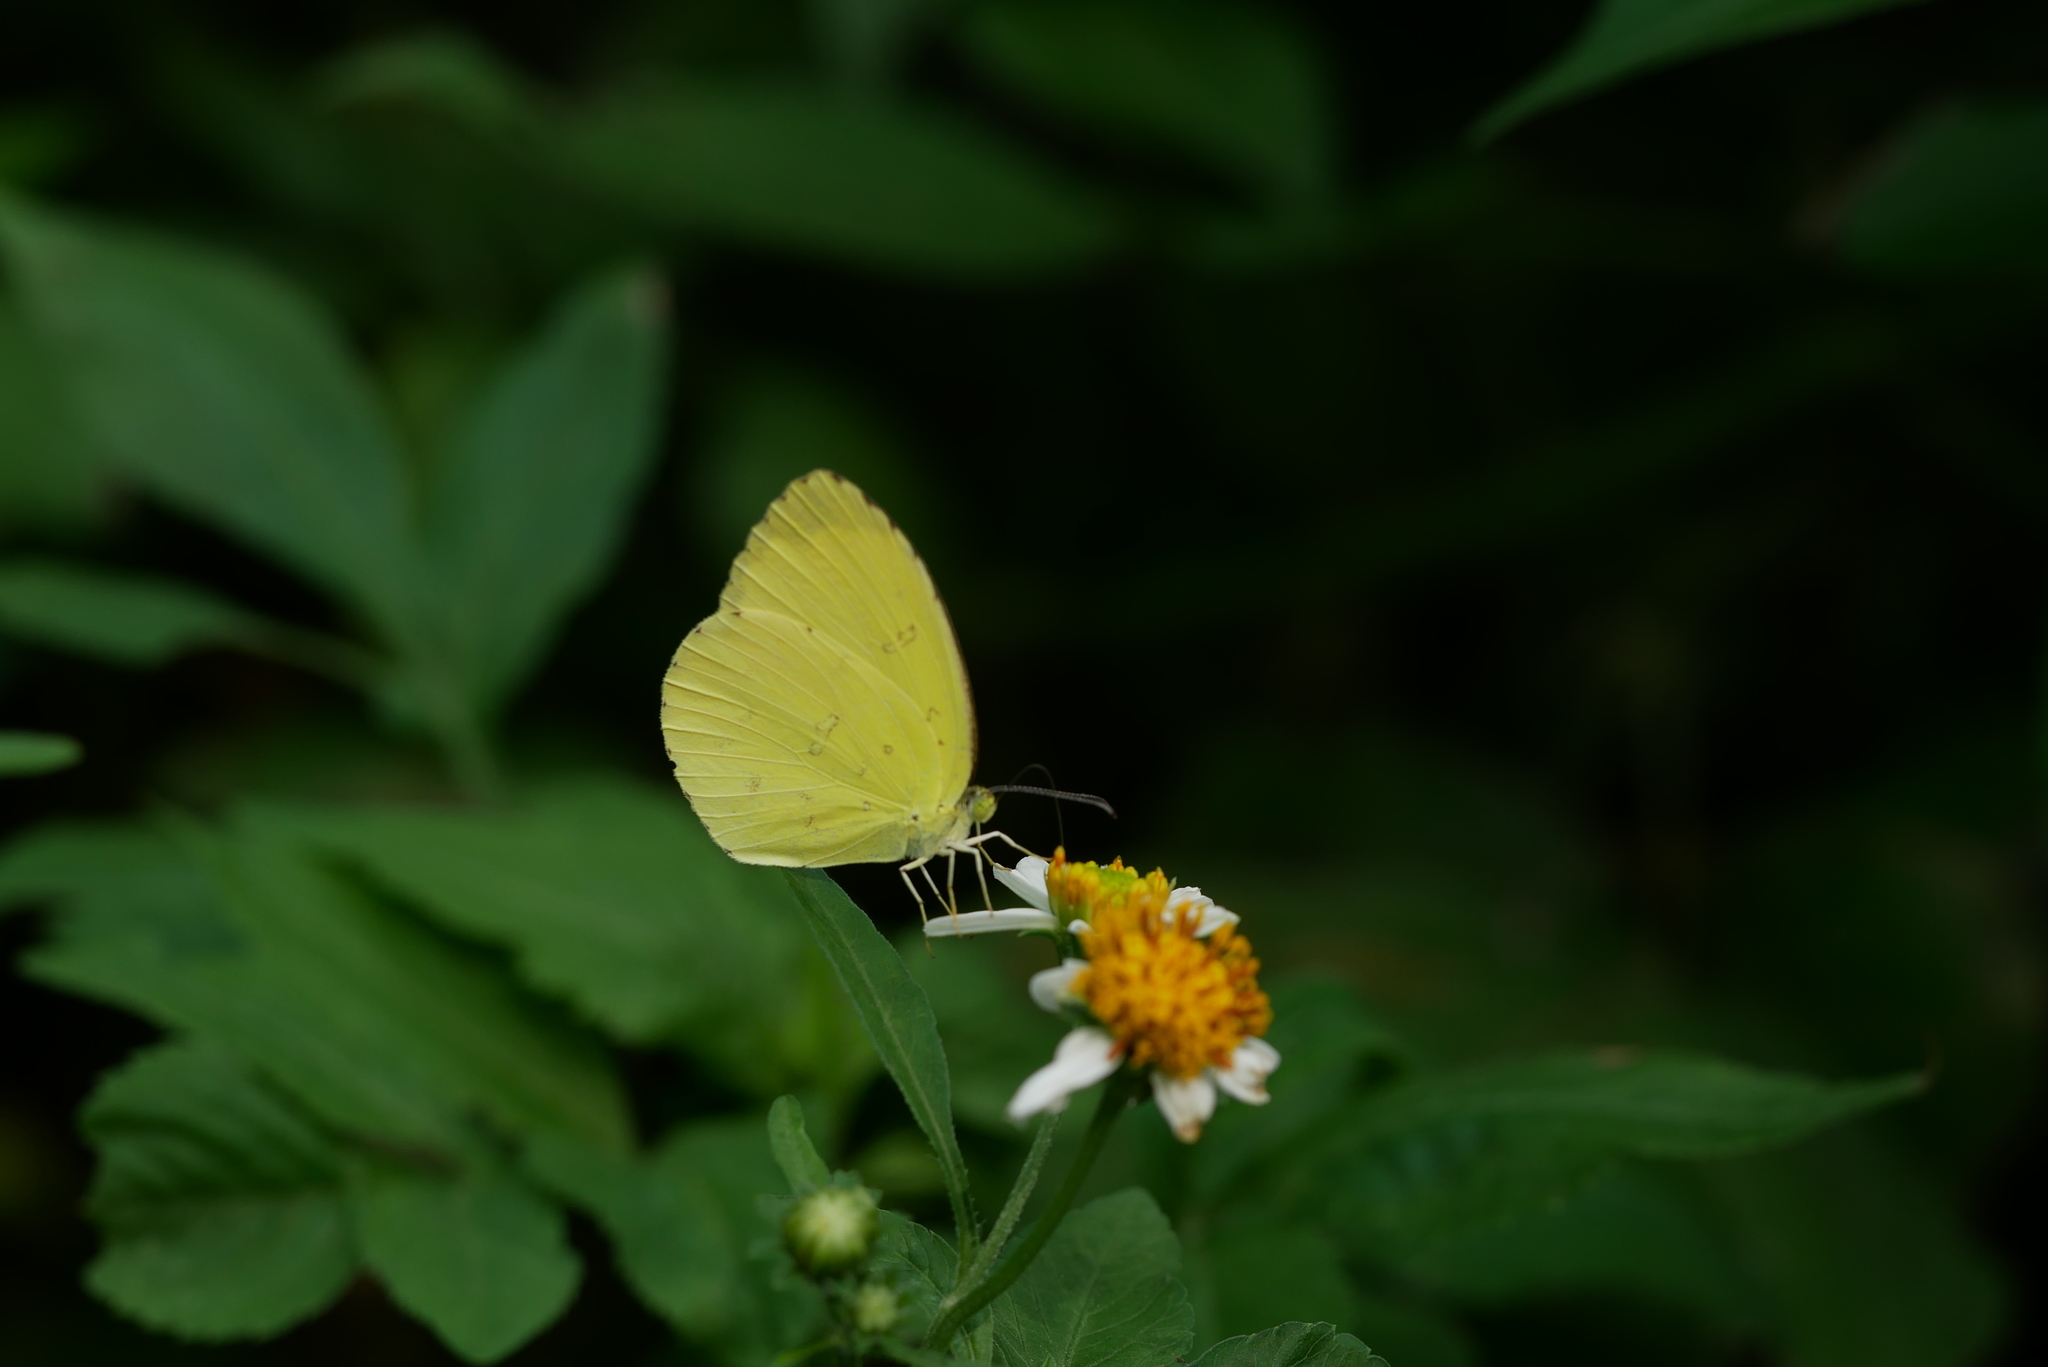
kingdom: Animalia
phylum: Arthropoda
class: Insecta
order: Lepidoptera
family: Pieridae
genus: Eurema
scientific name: Eurema hecabe
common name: Pale grass yellow
